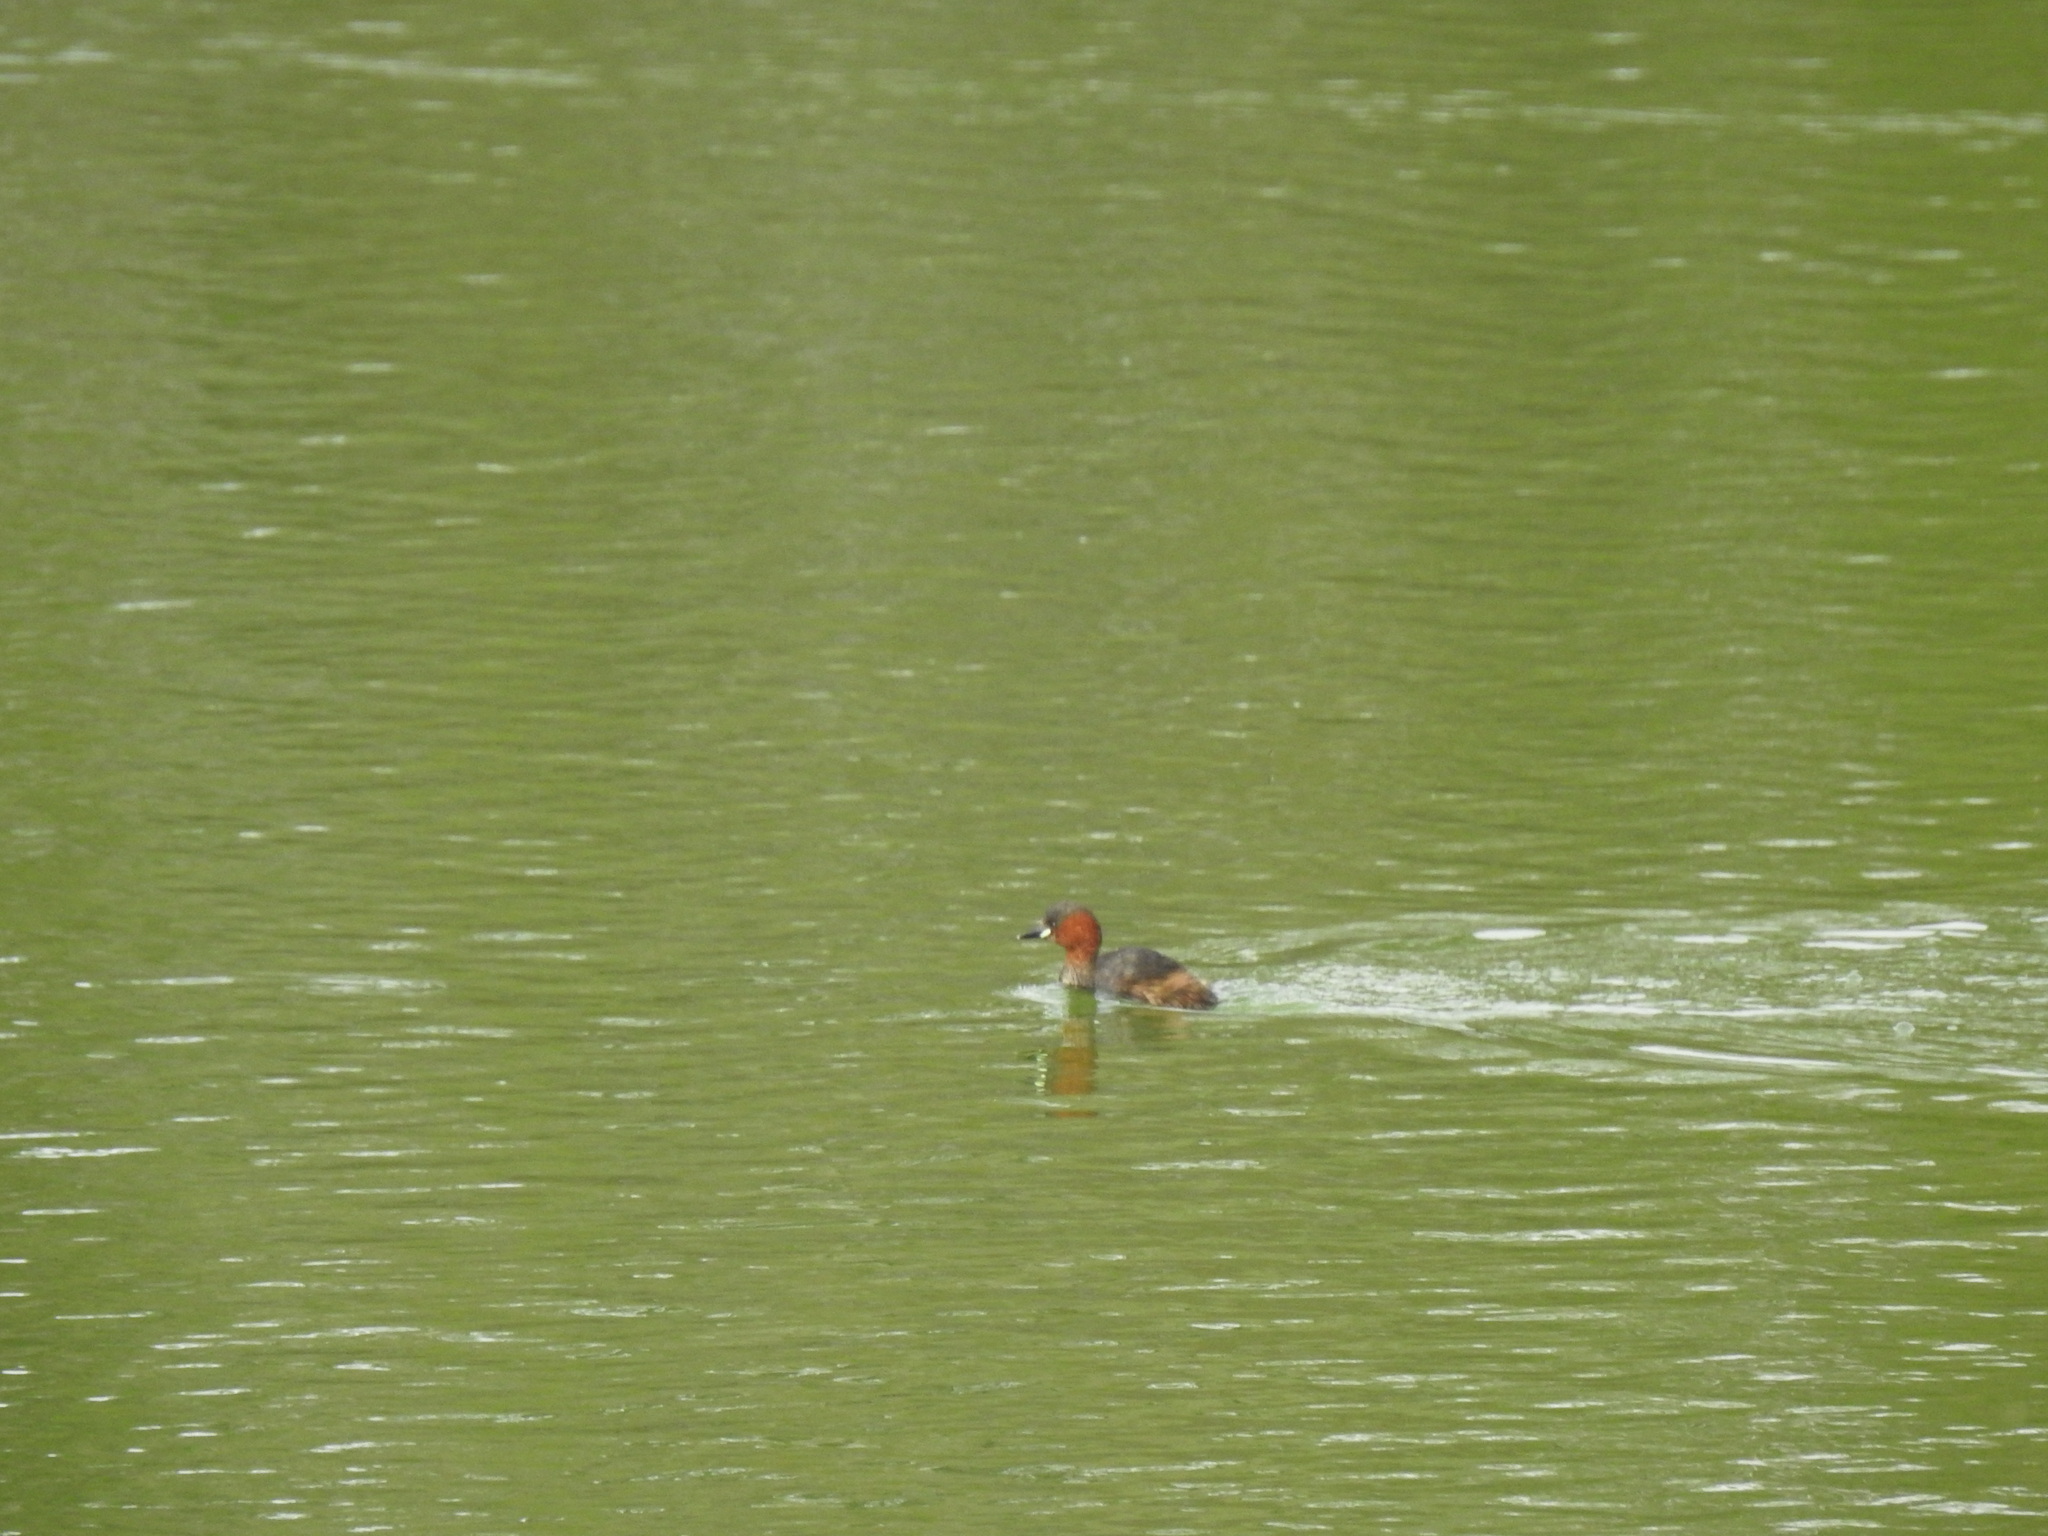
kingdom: Animalia
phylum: Chordata
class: Aves
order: Podicipediformes
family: Podicipedidae
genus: Tachybaptus
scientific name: Tachybaptus ruficollis
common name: Little grebe
